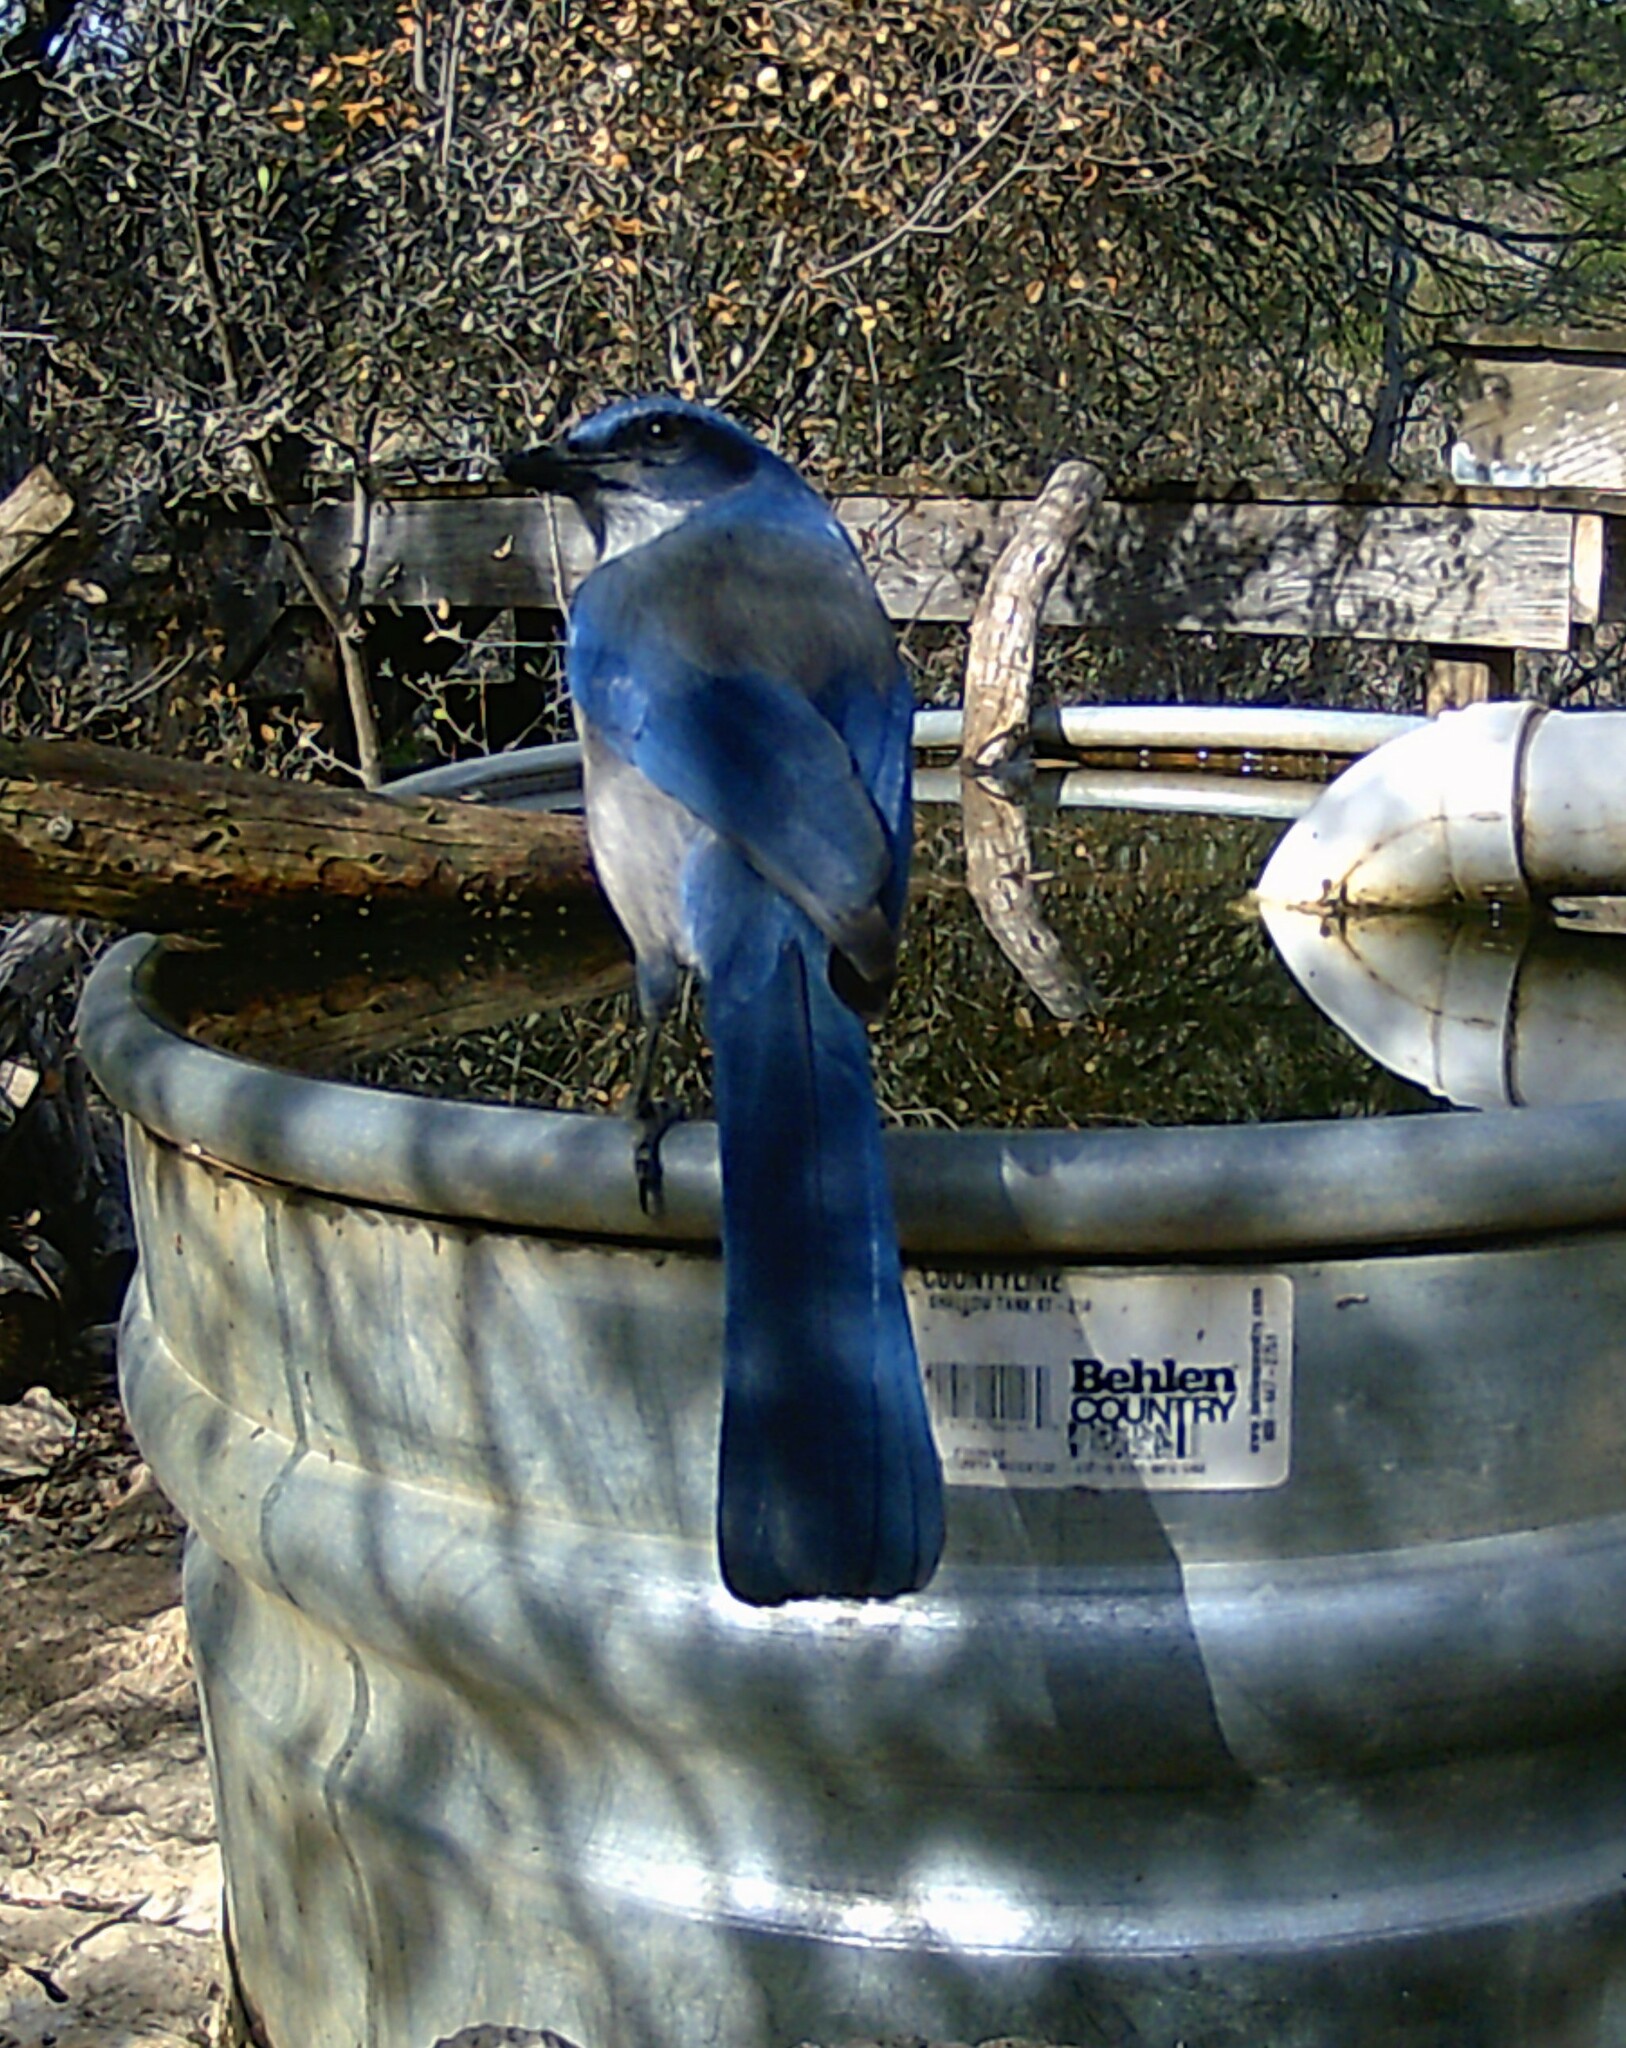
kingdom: Animalia
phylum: Chordata
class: Aves
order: Passeriformes
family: Corvidae
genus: Aphelocoma
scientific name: Aphelocoma woodhouseii
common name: Woodhouse's scrub-jay
